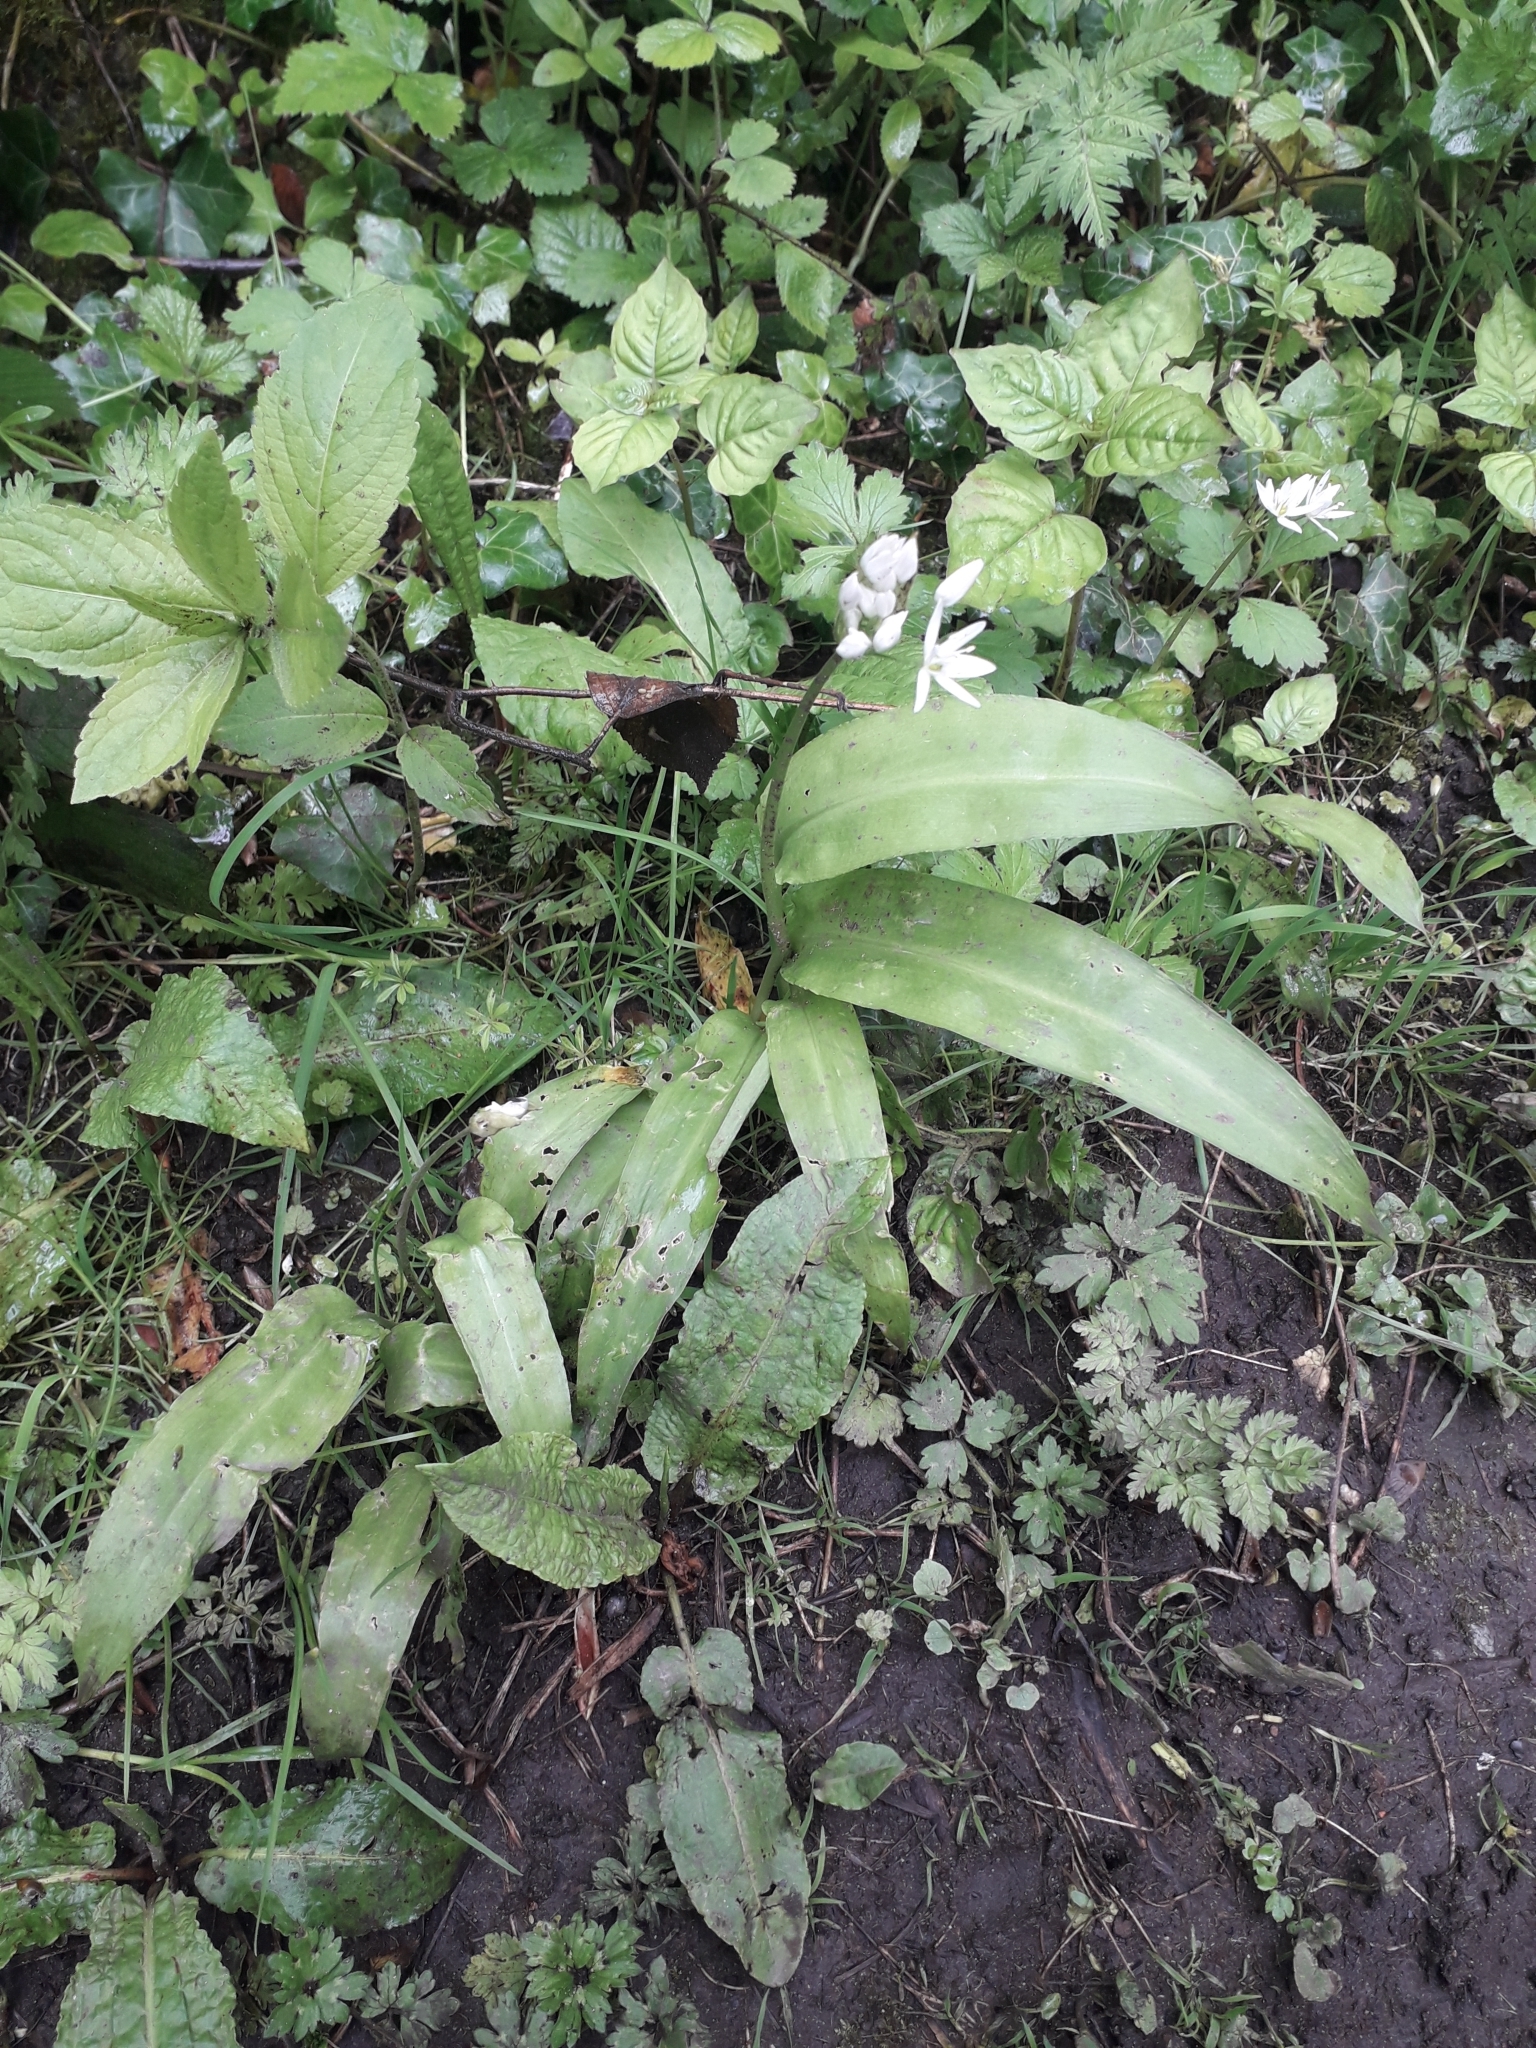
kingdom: Plantae
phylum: Tracheophyta
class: Liliopsida
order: Asparagales
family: Amaryllidaceae
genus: Allium
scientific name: Allium ursinum
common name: Ramsons
